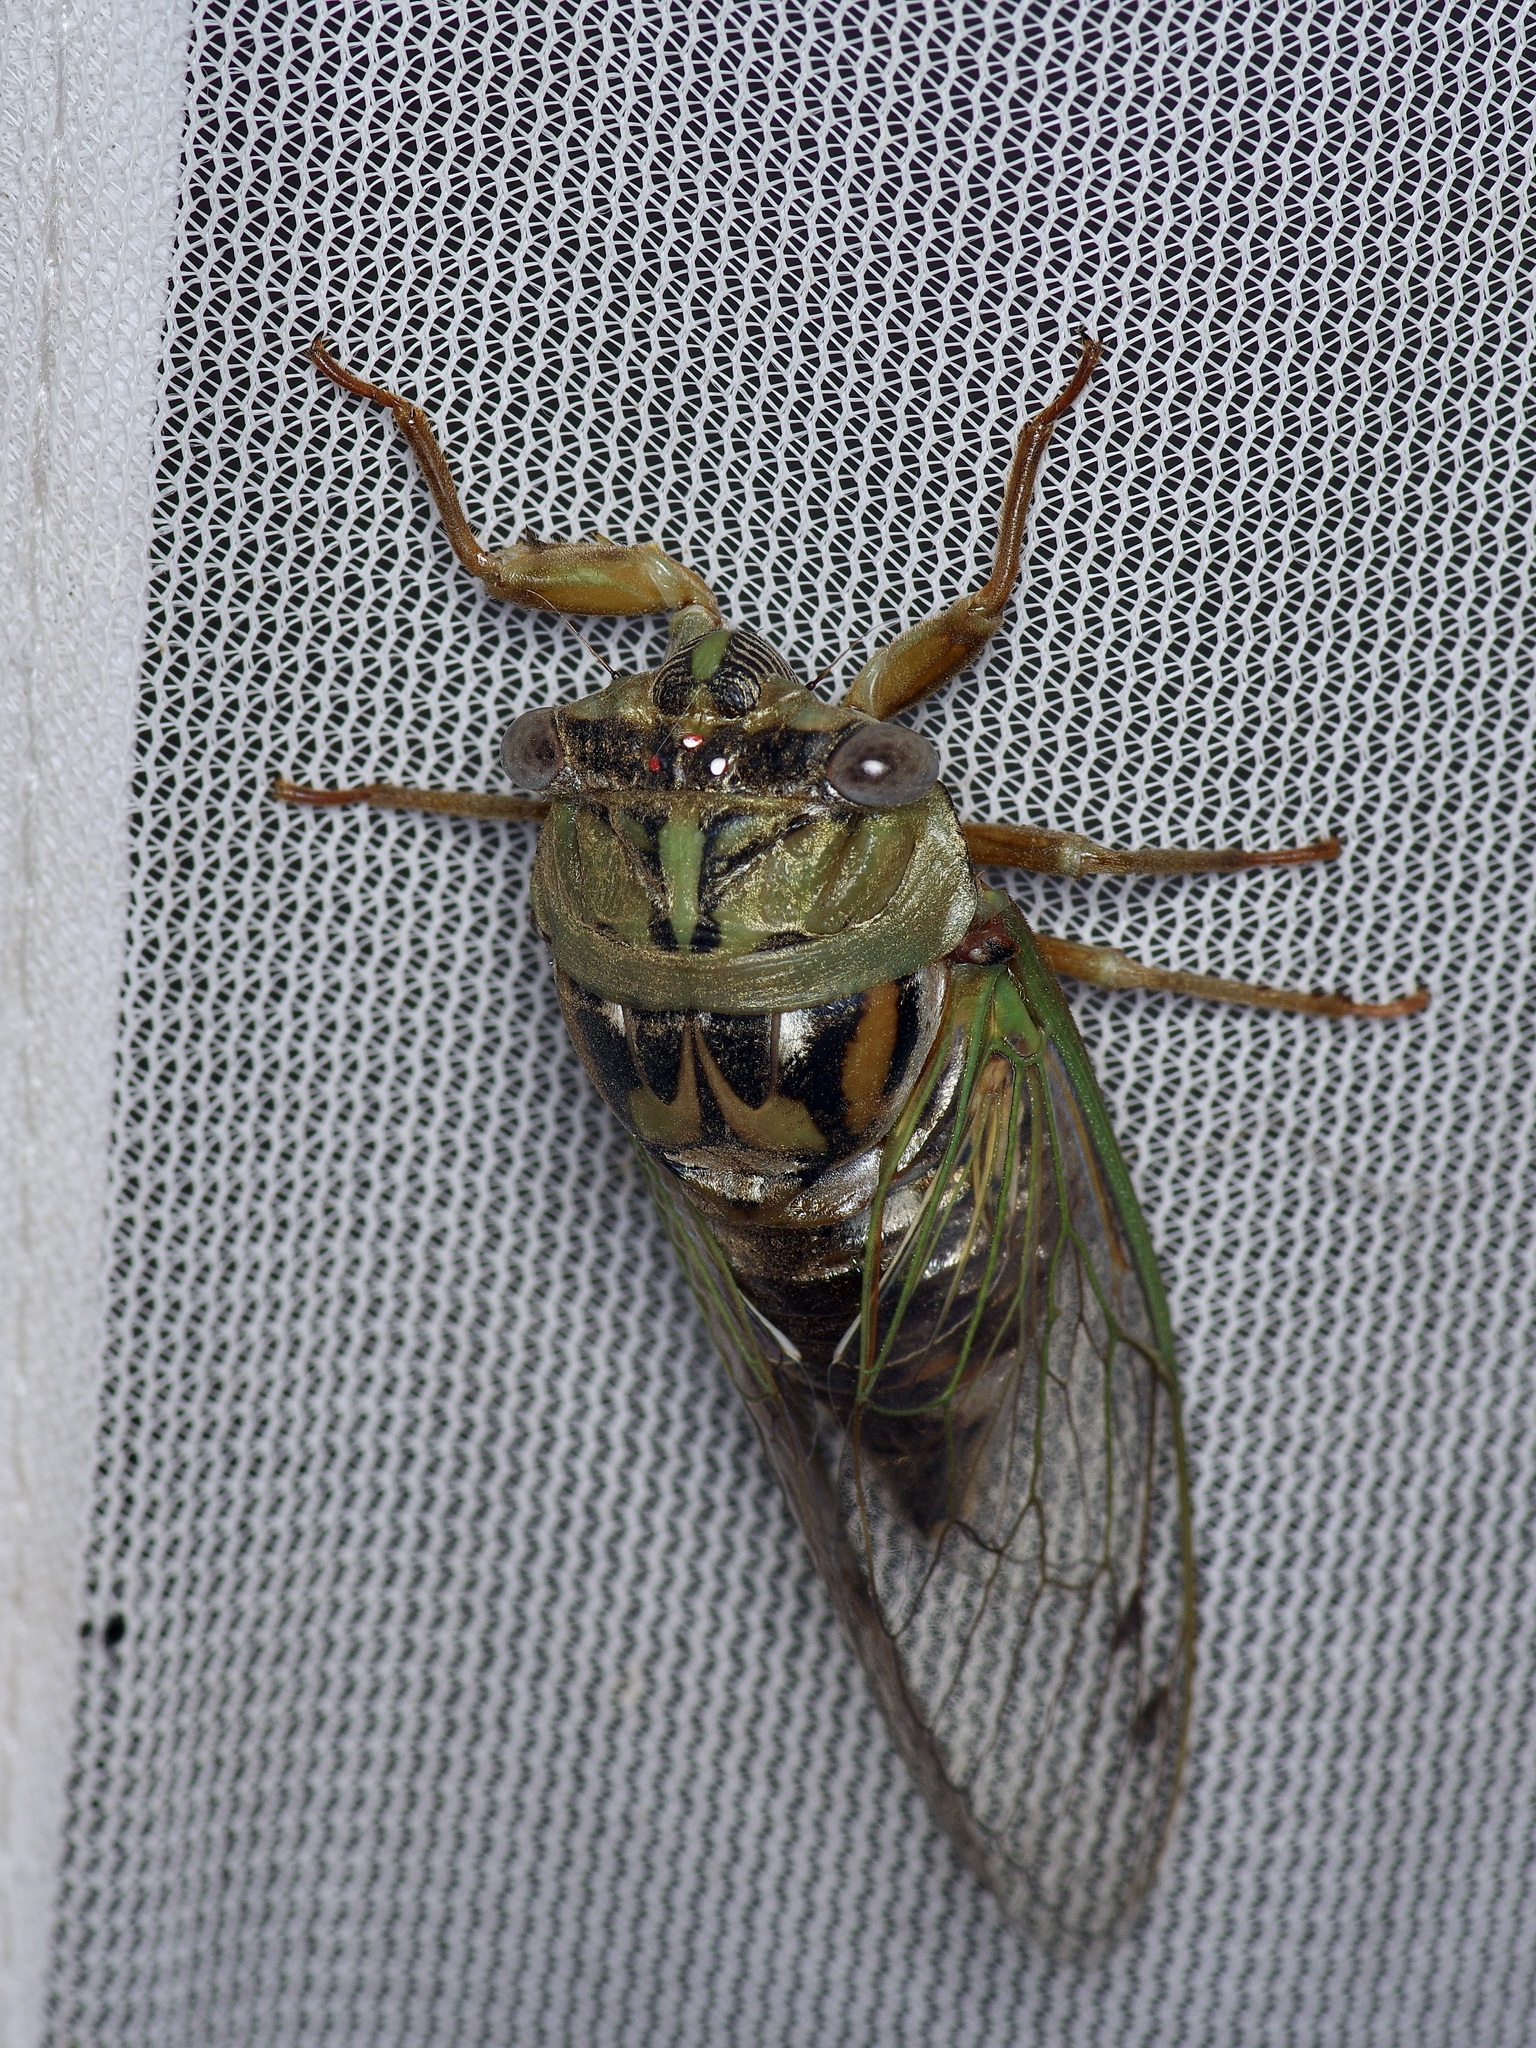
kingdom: Animalia
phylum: Arthropoda
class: Insecta
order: Hemiptera
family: Cicadidae
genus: Megatibicen
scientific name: Megatibicen resh
